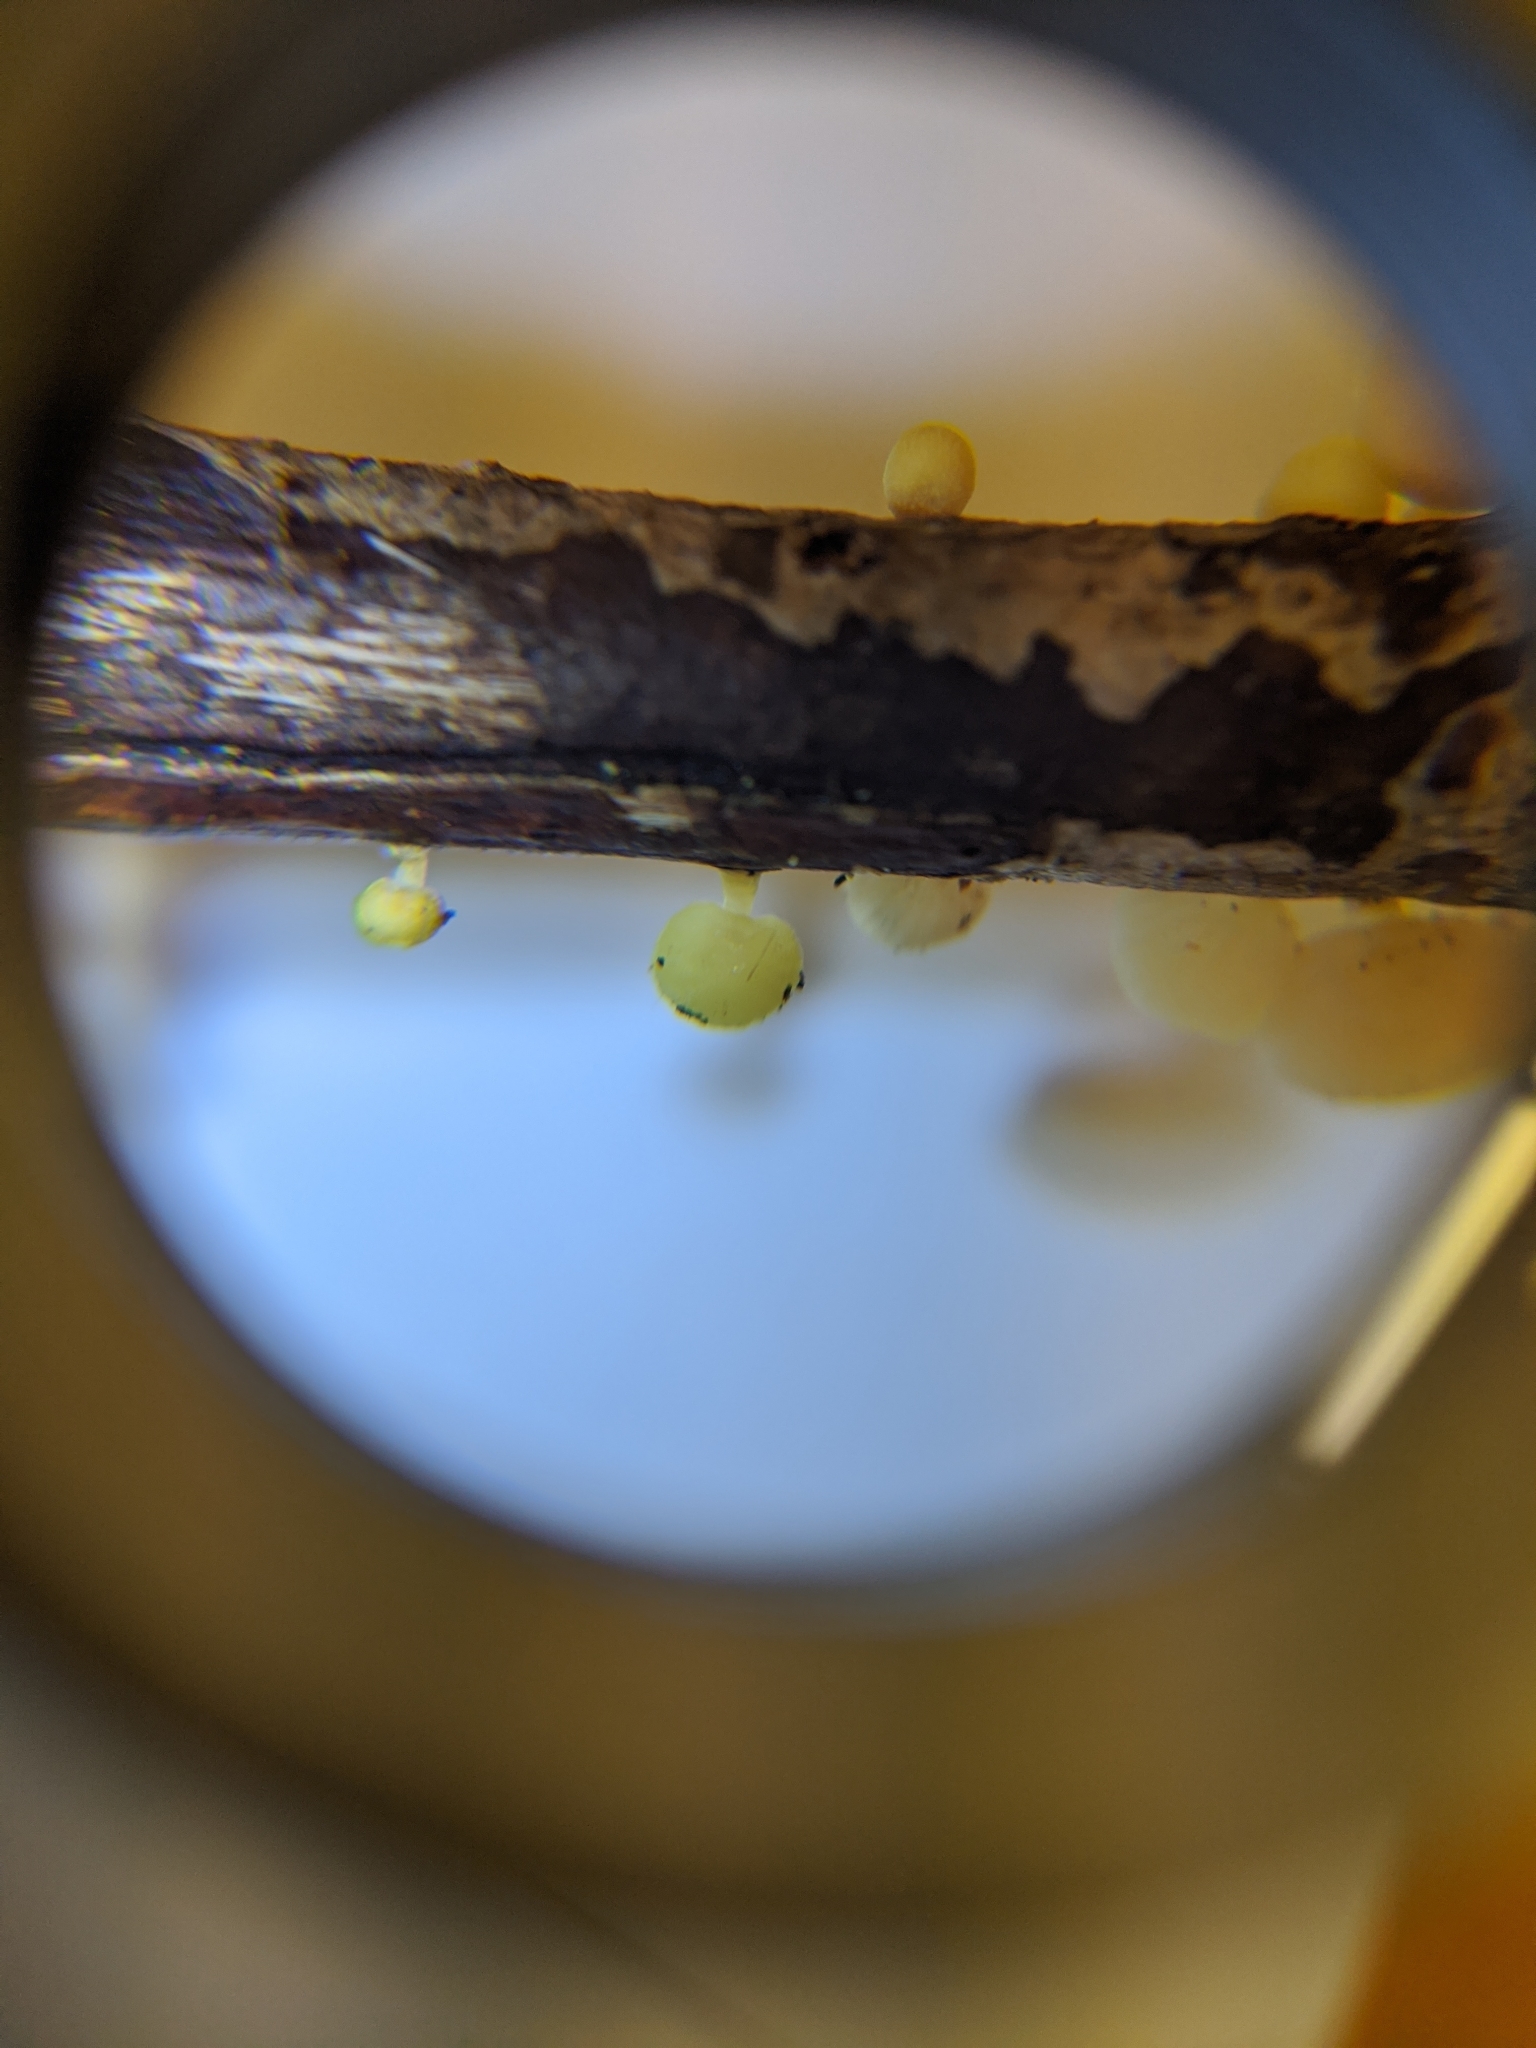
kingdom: Fungi
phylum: Basidiomycota
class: Agaricomycetes
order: Agaricales
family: Mycenaceae
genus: Mycena
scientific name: Mycena roseoflava
